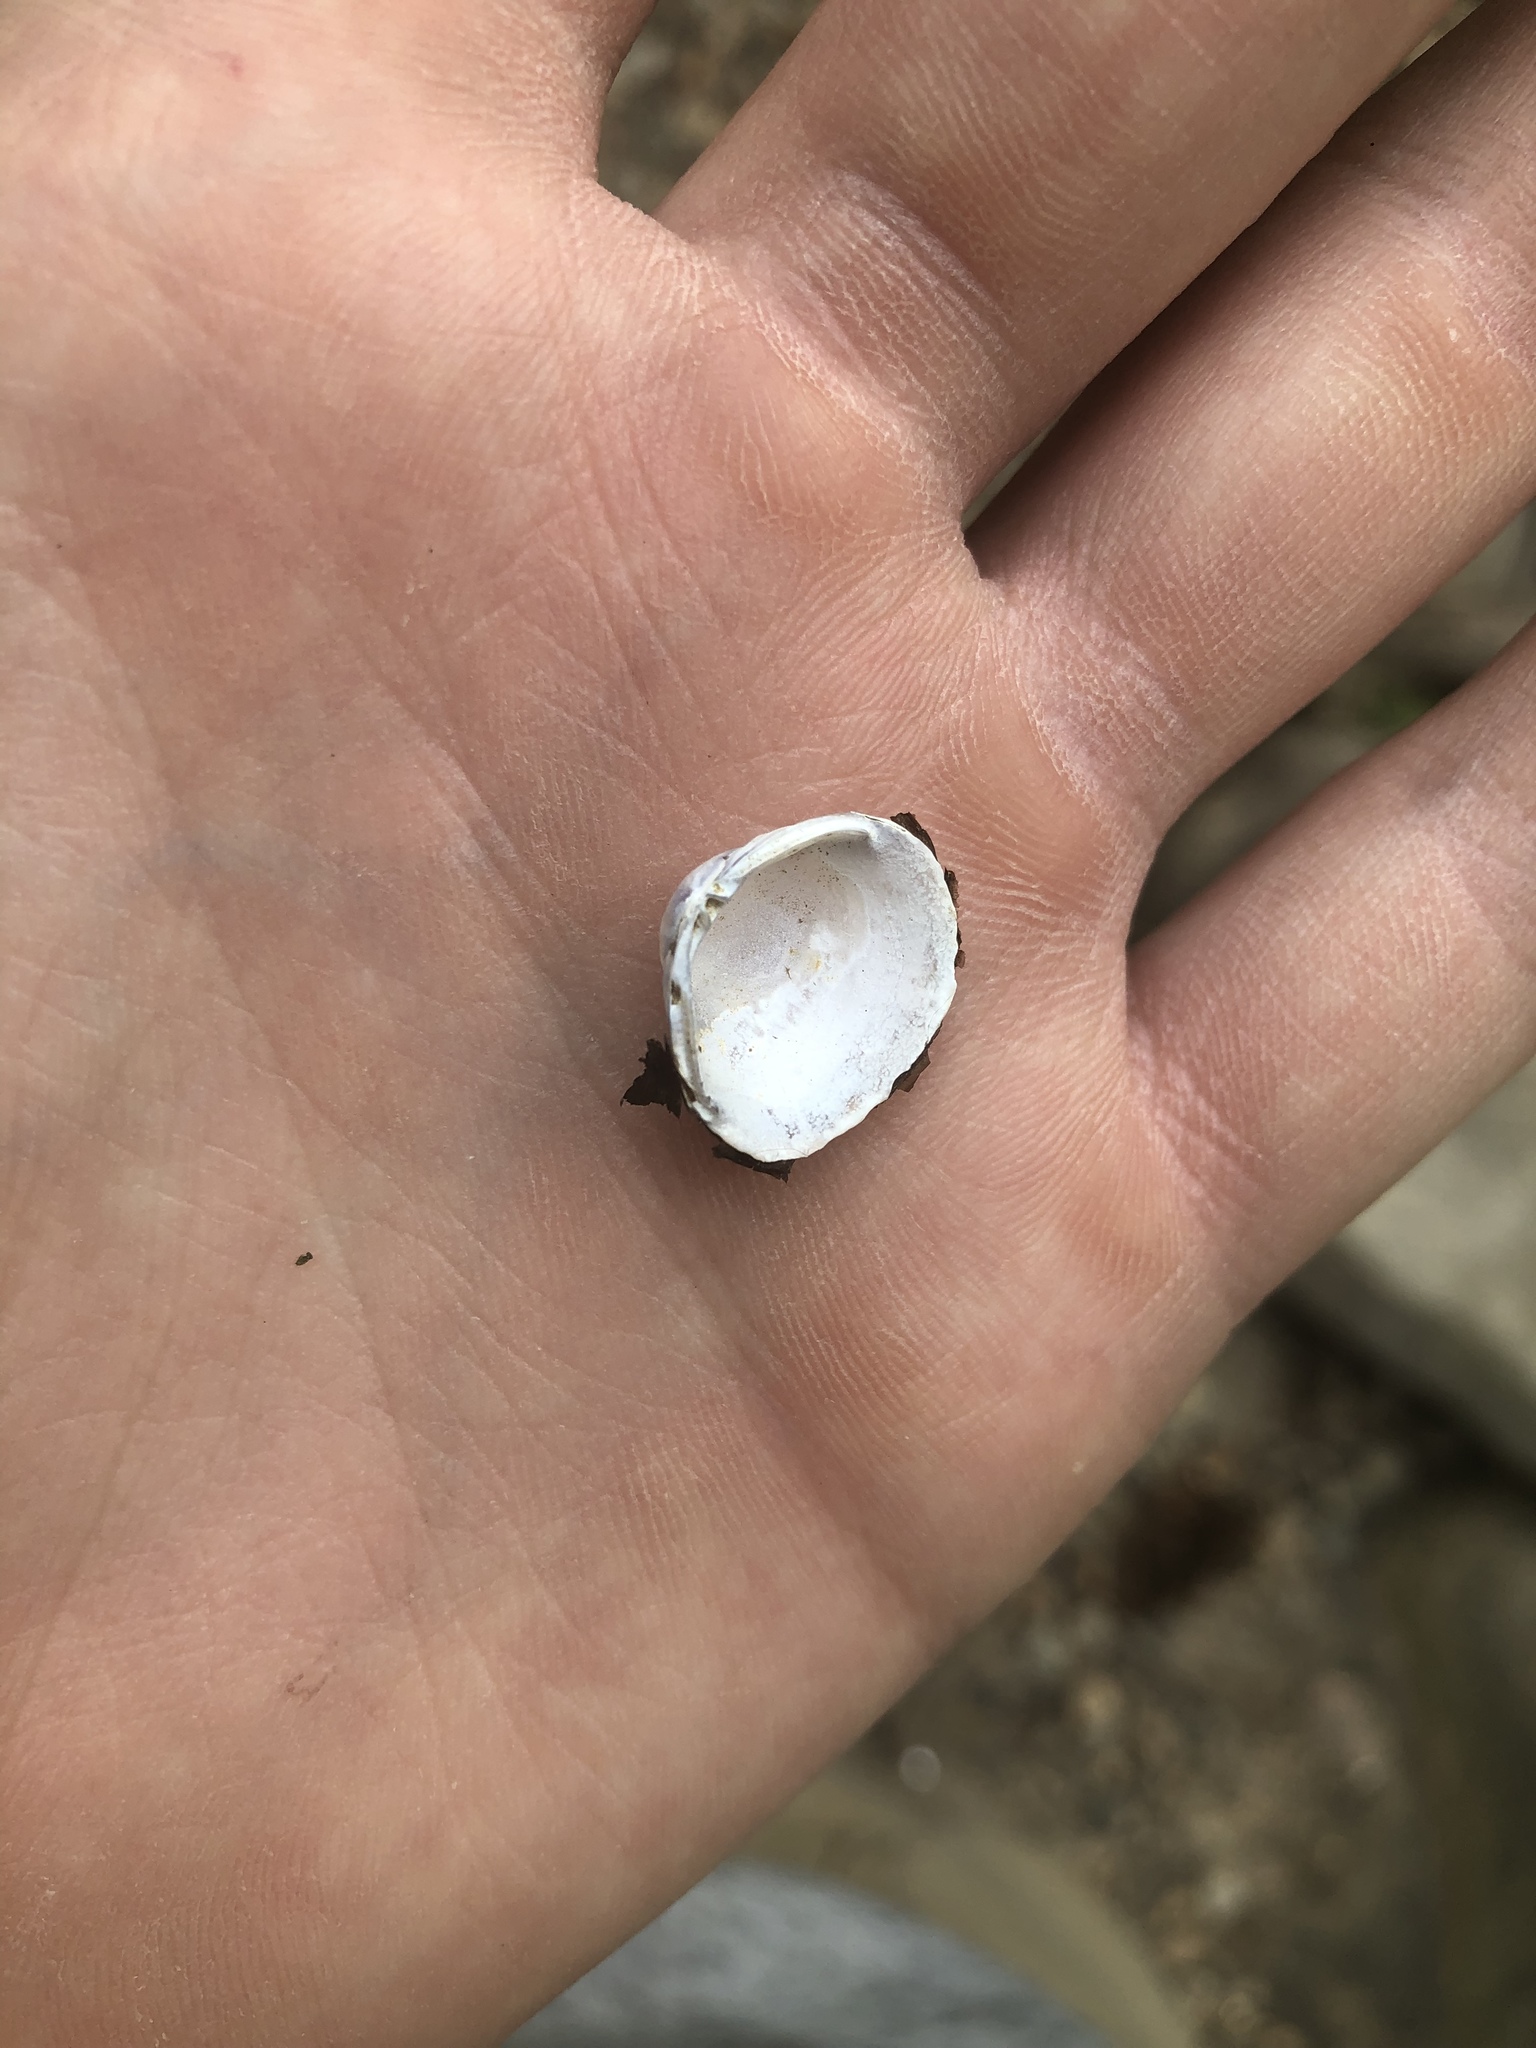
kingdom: Animalia
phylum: Mollusca
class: Bivalvia
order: Venerida
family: Cyrenidae
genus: Corbicula
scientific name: Corbicula fluminea
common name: Asian clam
